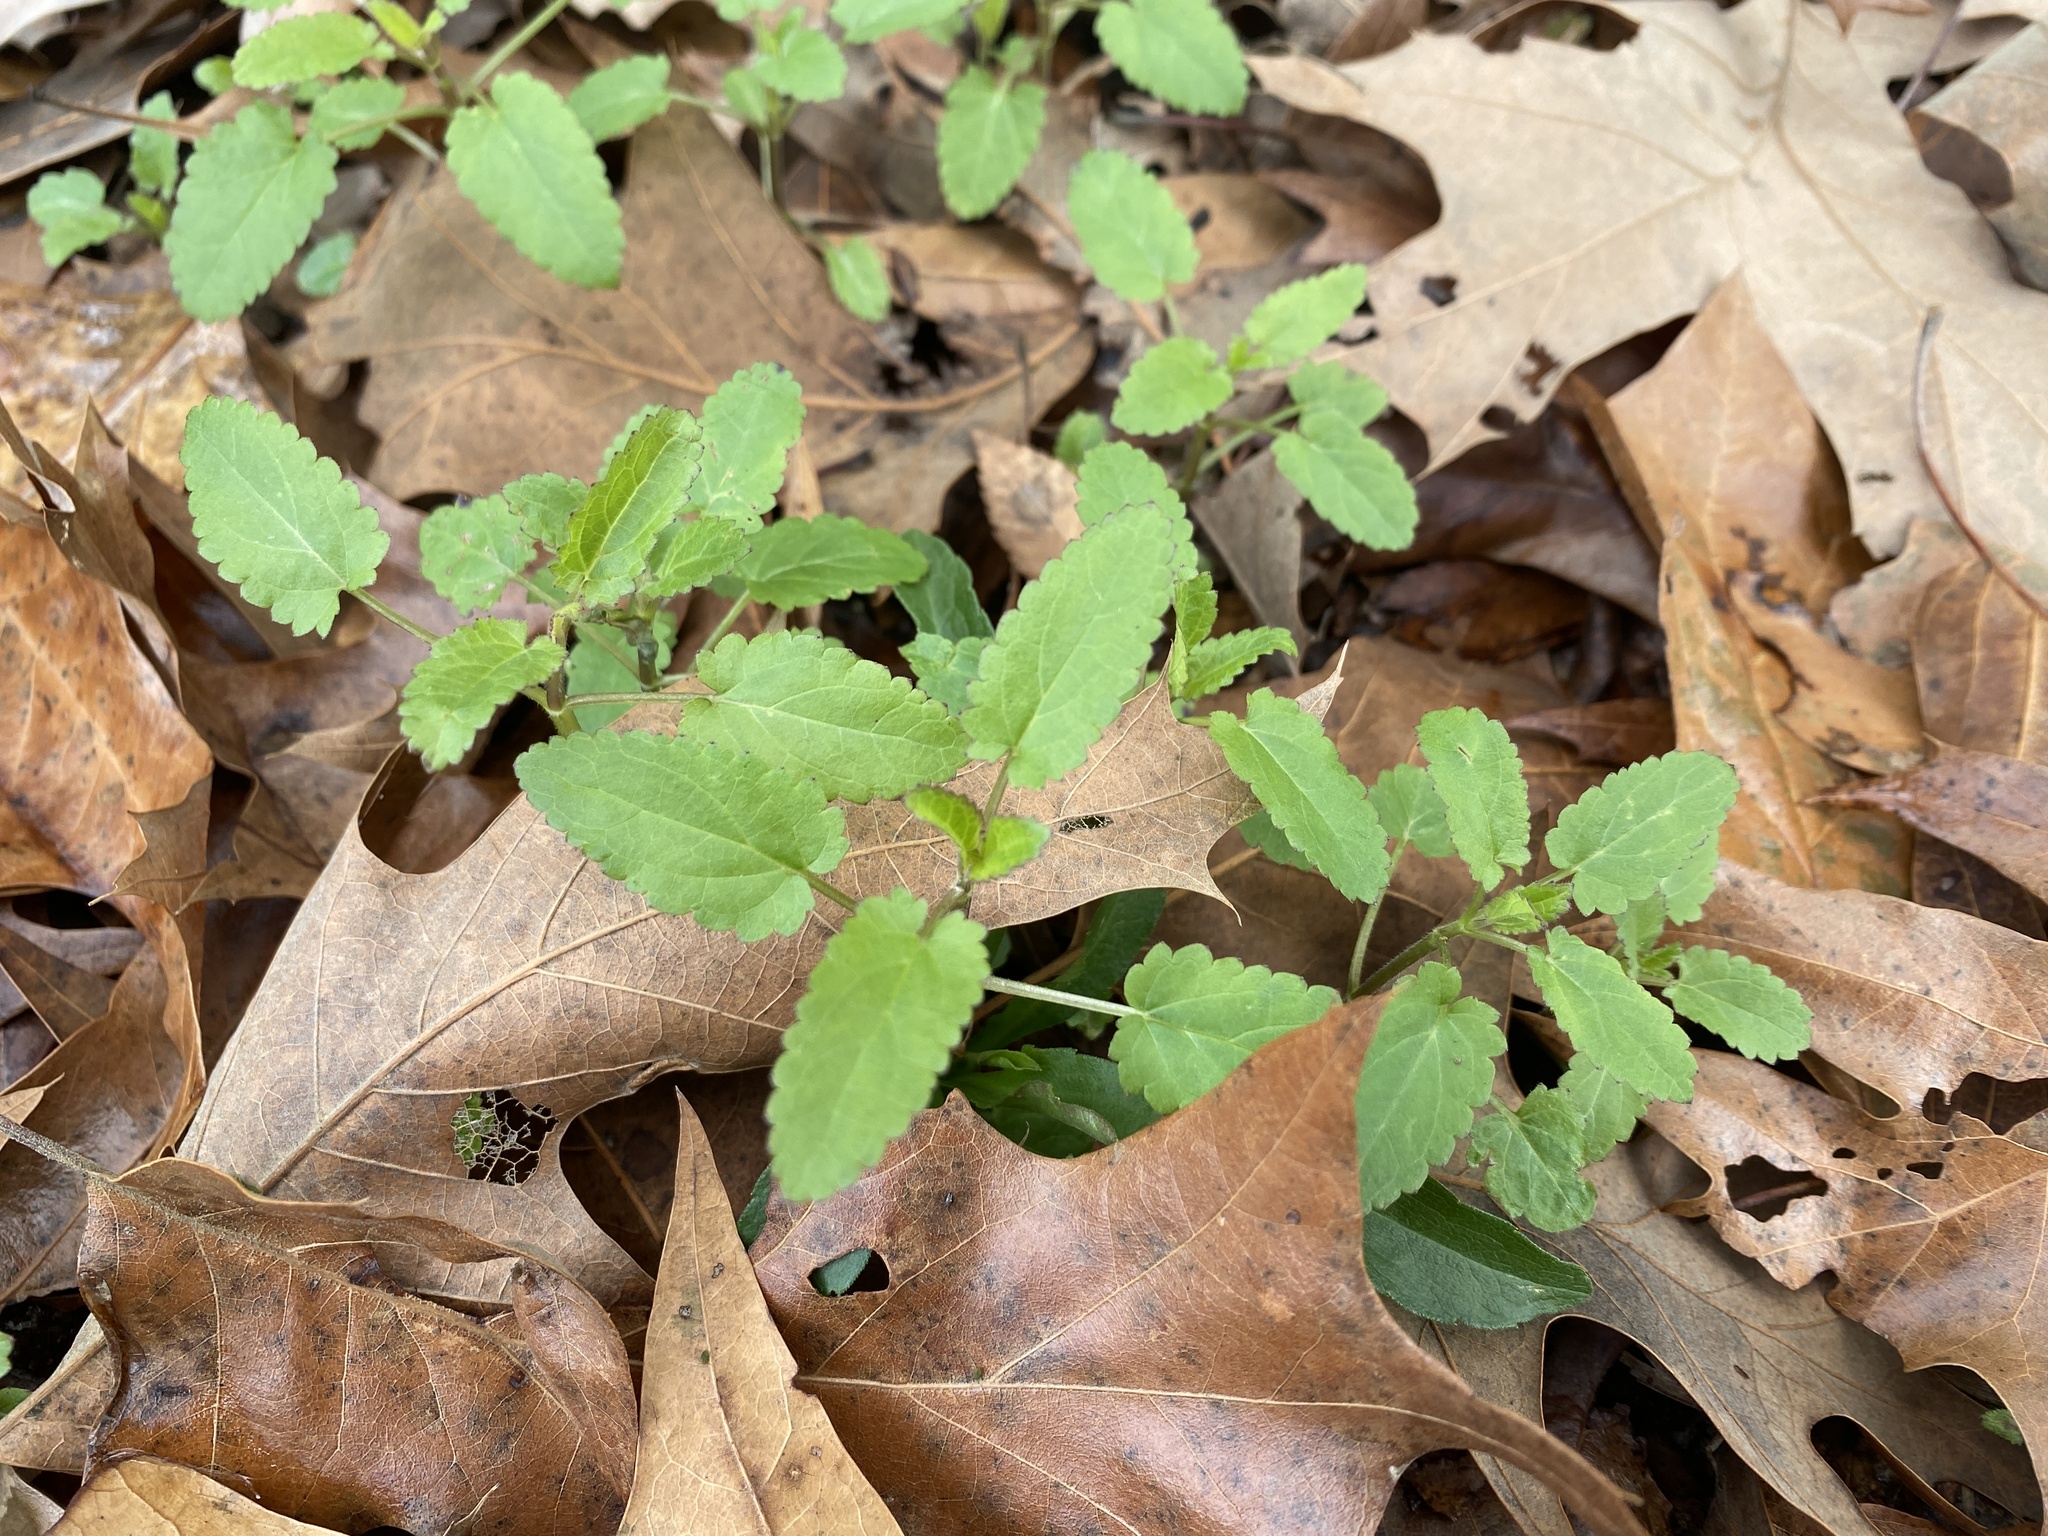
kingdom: Plantae
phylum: Tracheophyta
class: Magnoliopsida
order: Lamiales
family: Lamiaceae
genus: Stachys
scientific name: Stachys floridana
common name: Florida betony
